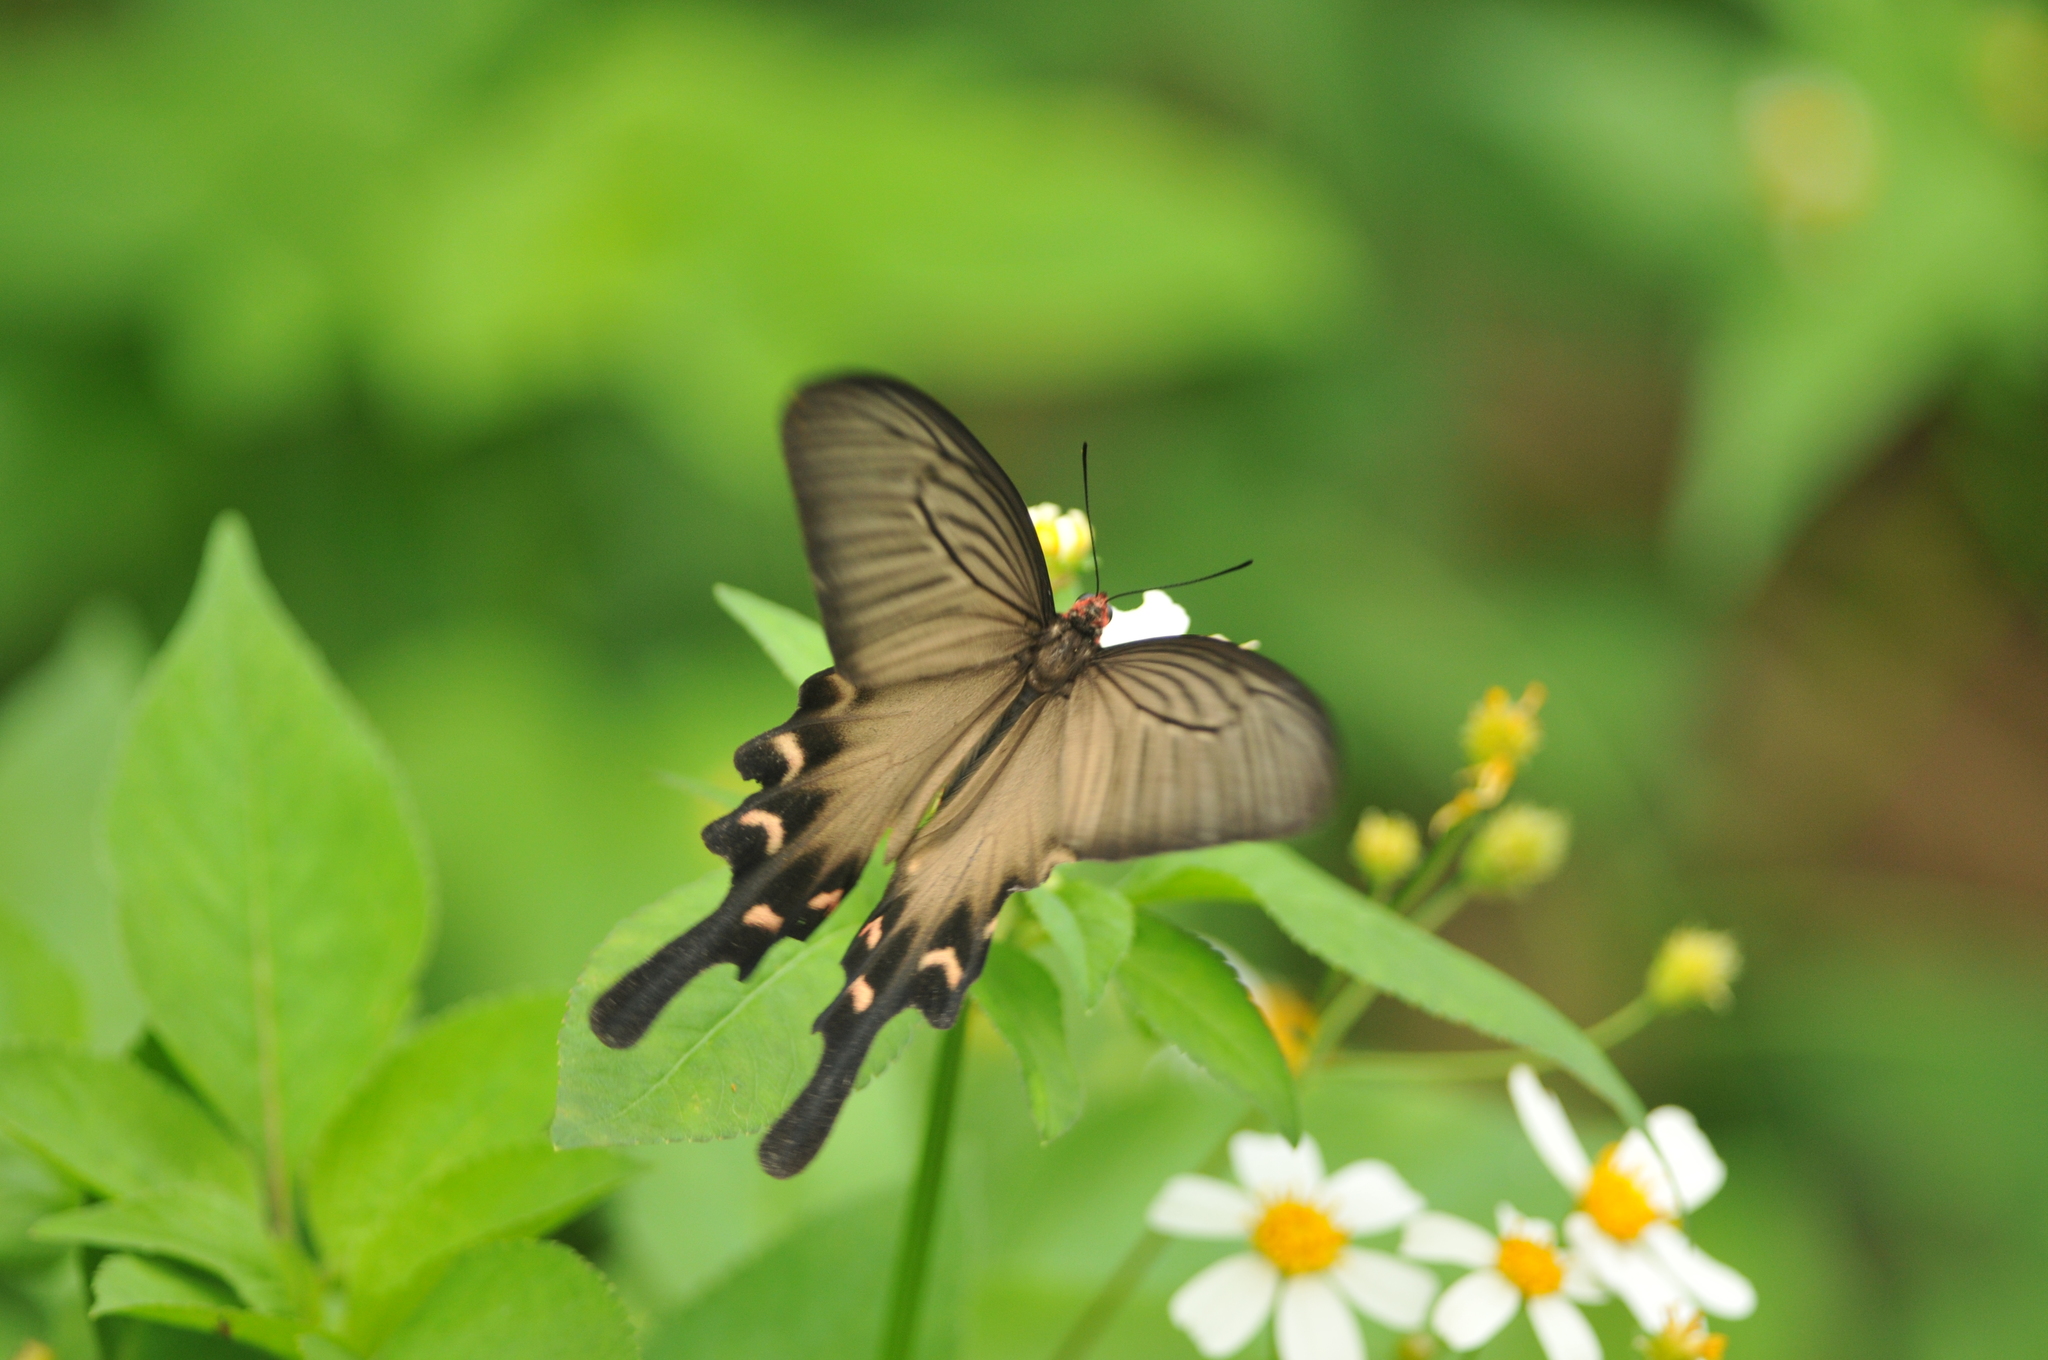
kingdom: Animalia
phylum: Arthropoda
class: Insecta
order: Lepidoptera
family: Papilionidae
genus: Byasa
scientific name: Byasa confusus
